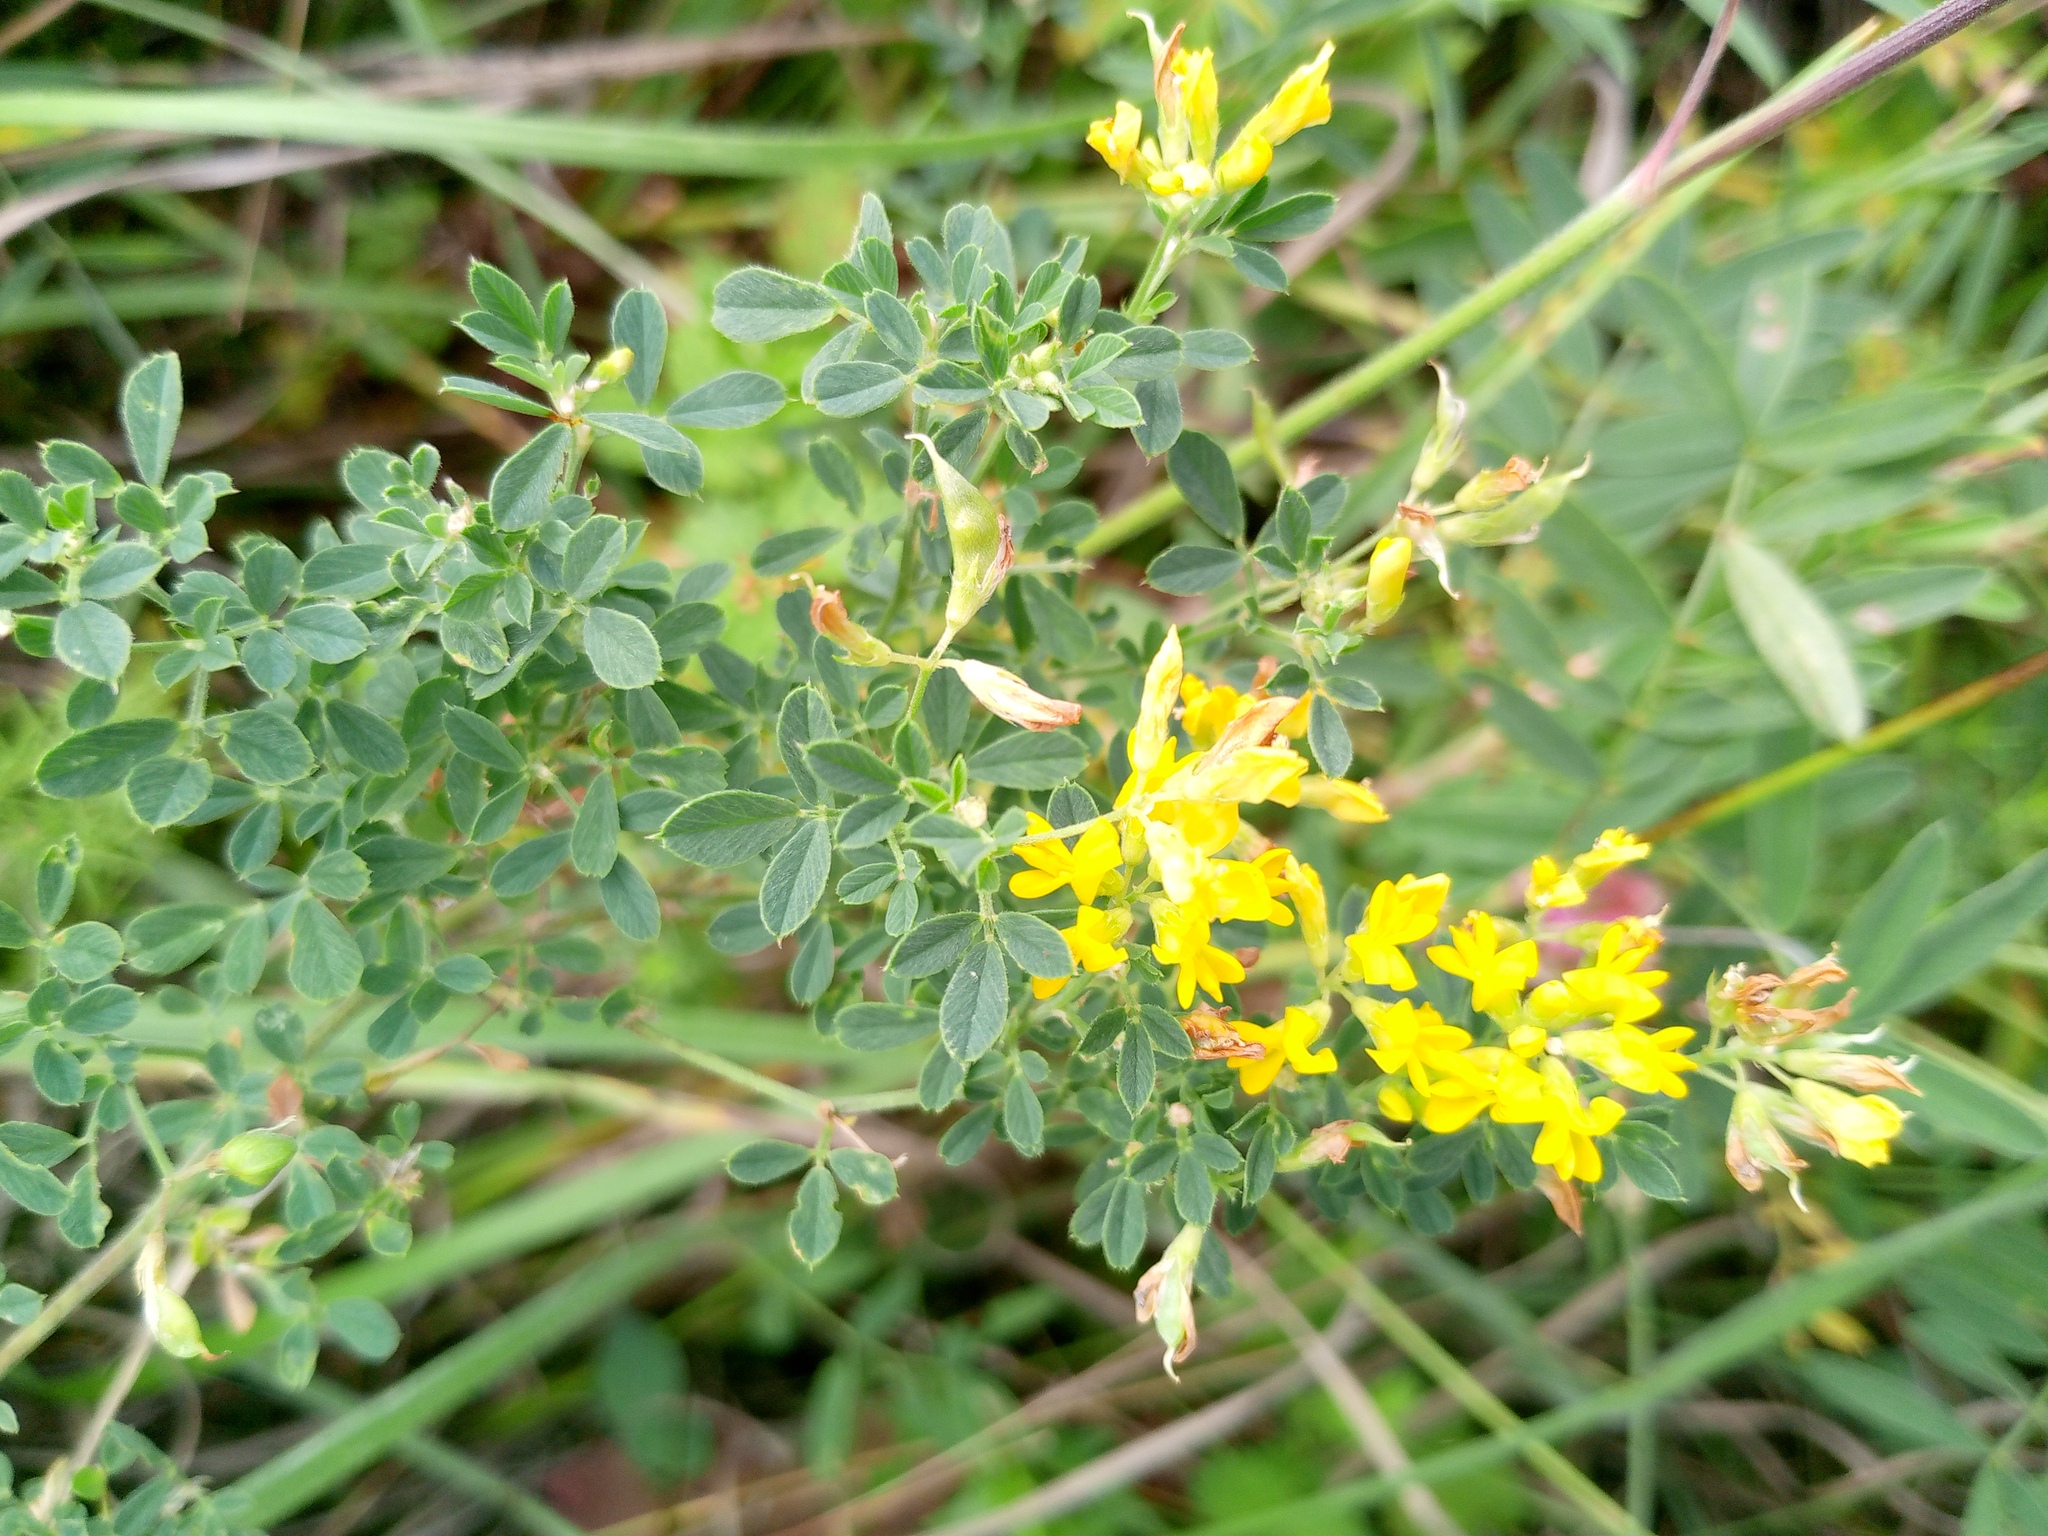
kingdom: Plantae
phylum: Tracheophyta
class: Magnoliopsida
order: Fabales
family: Fabaceae
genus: Medicago
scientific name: Medicago falcata
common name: Sickle medick
